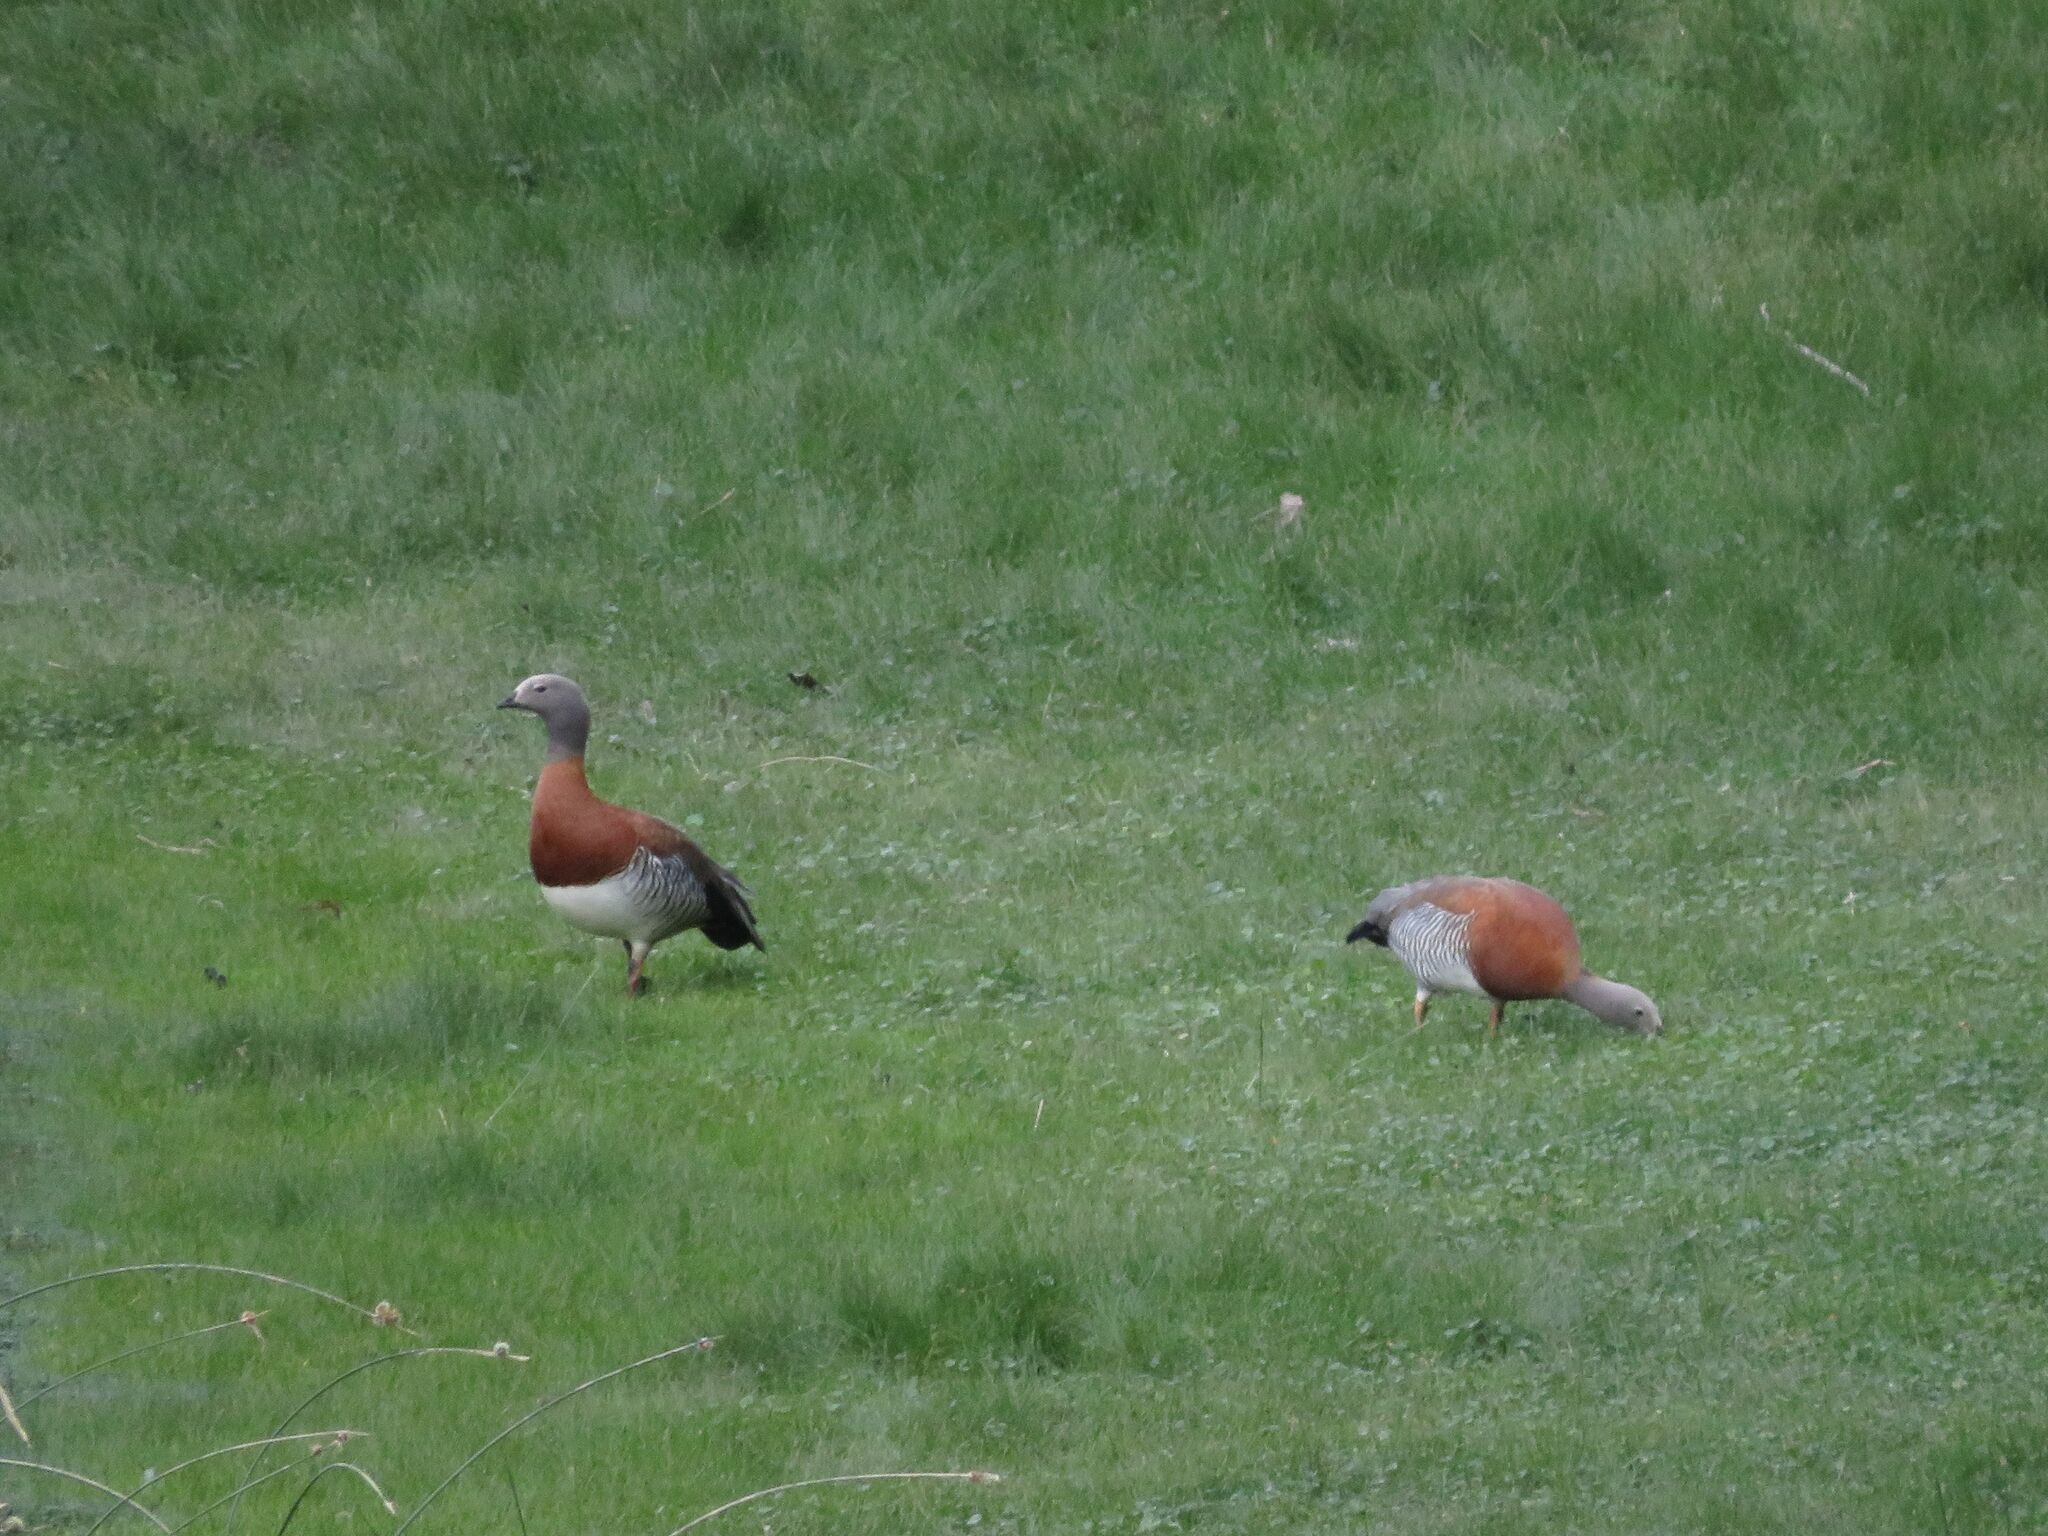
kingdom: Animalia
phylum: Chordata
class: Aves
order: Anseriformes
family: Anatidae
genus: Chloephaga
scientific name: Chloephaga poliocephala
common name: Ashy-headed goose
